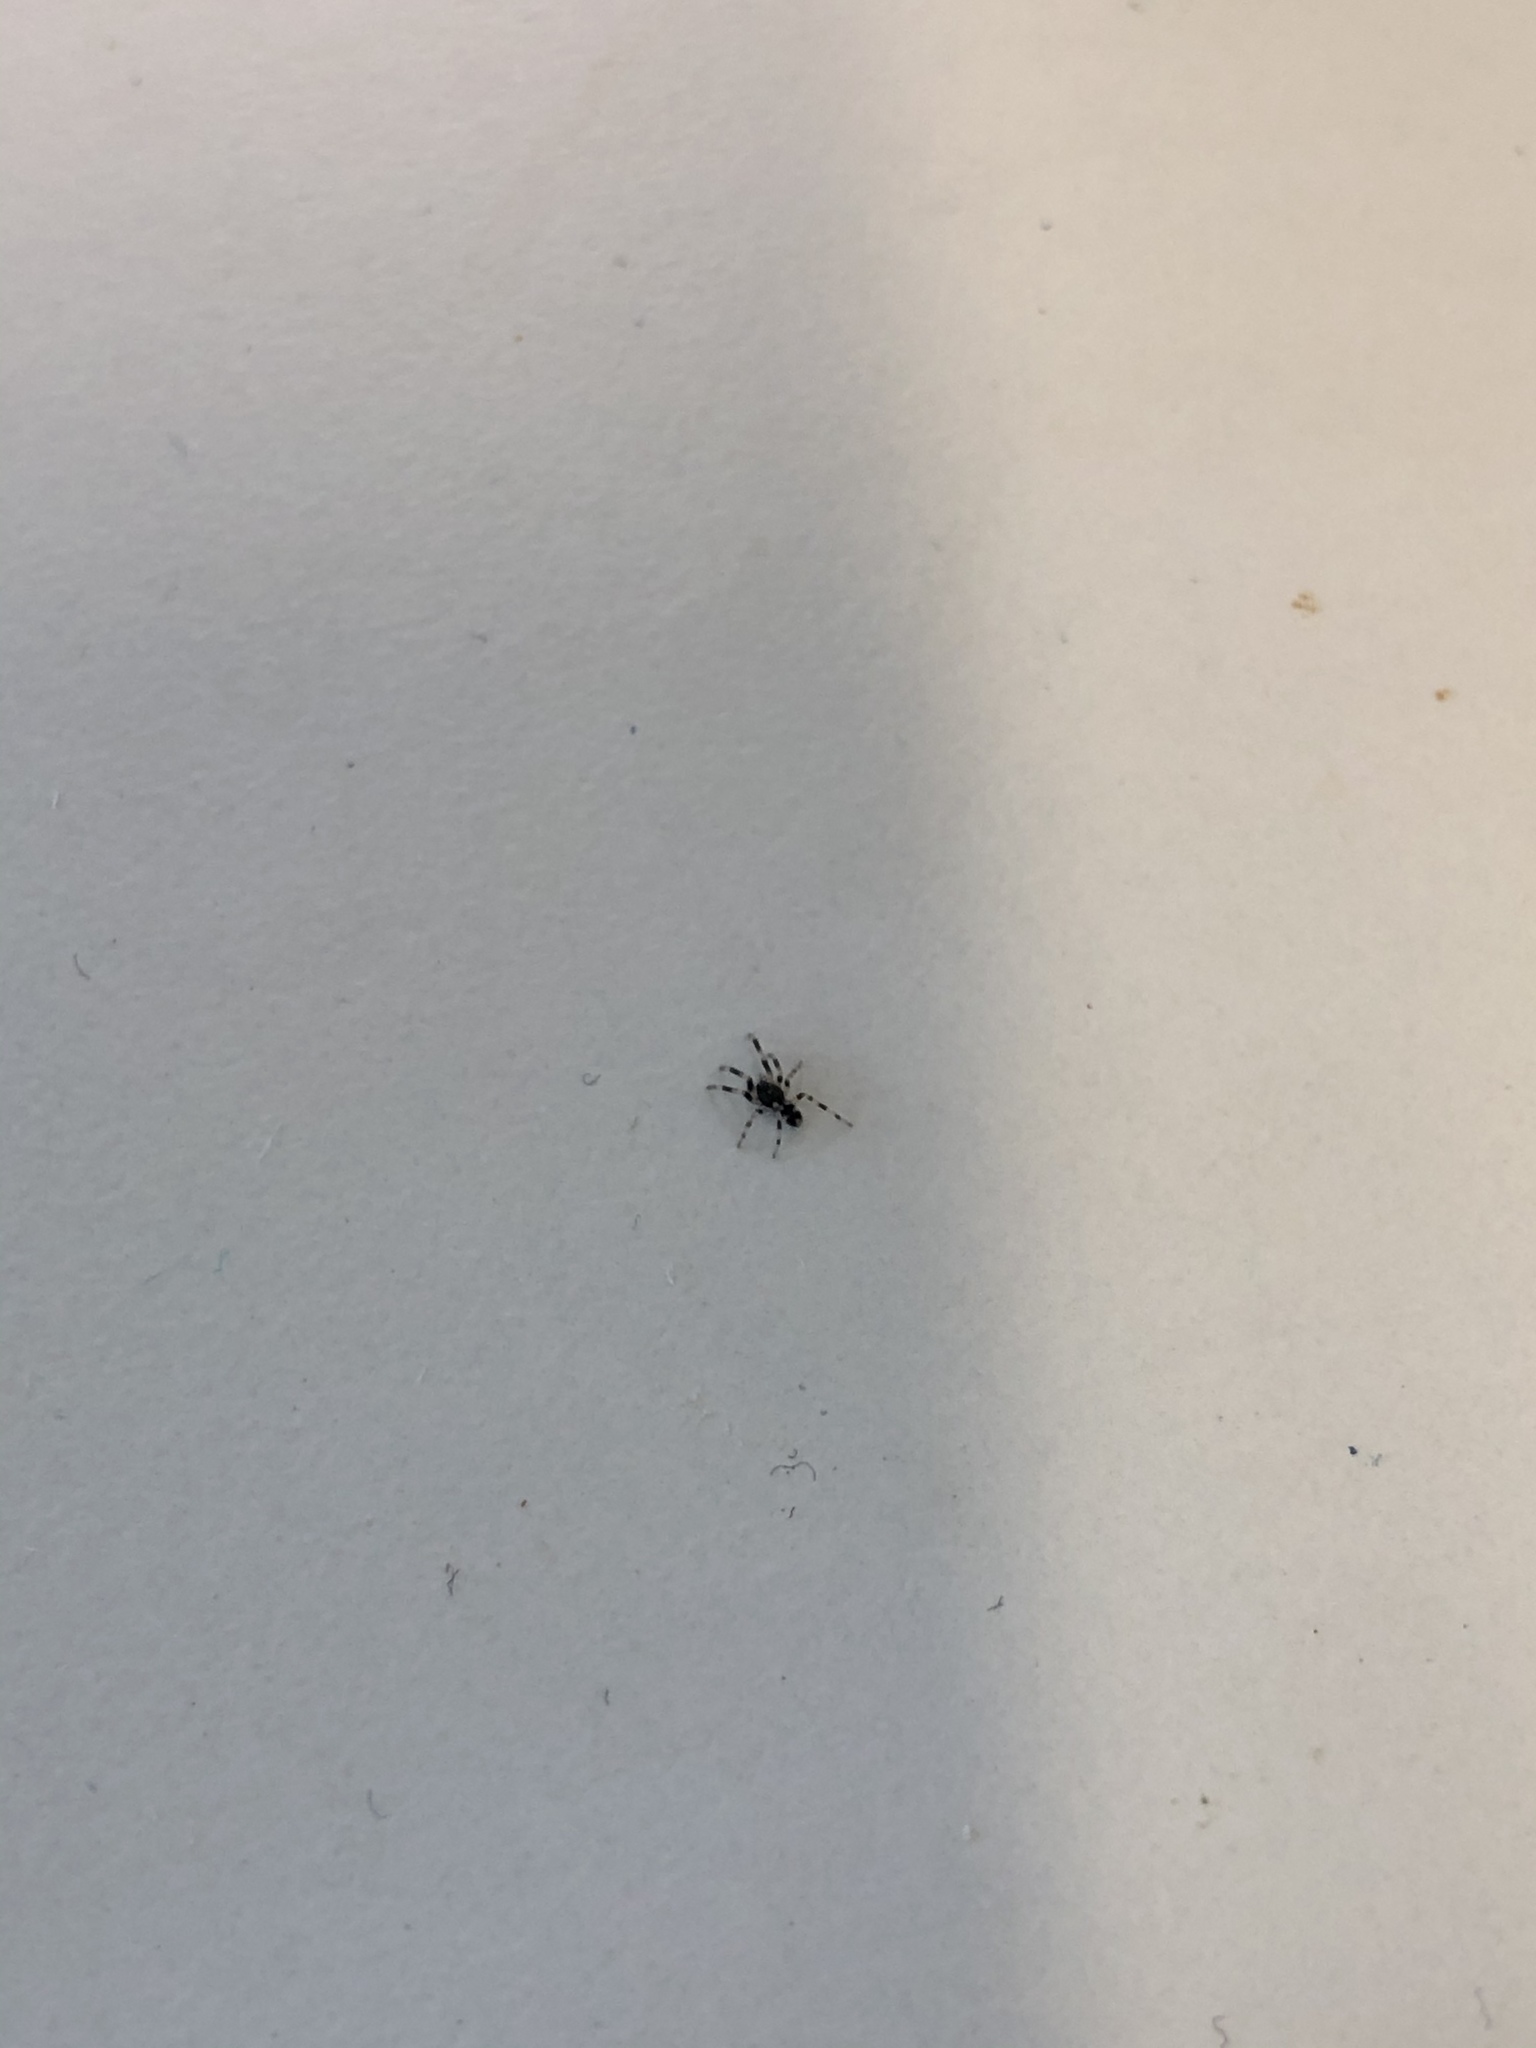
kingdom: Animalia
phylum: Arthropoda
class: Arachnida
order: Araneae
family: Lamponidae
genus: Lampona
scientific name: Lampona cylindrata
